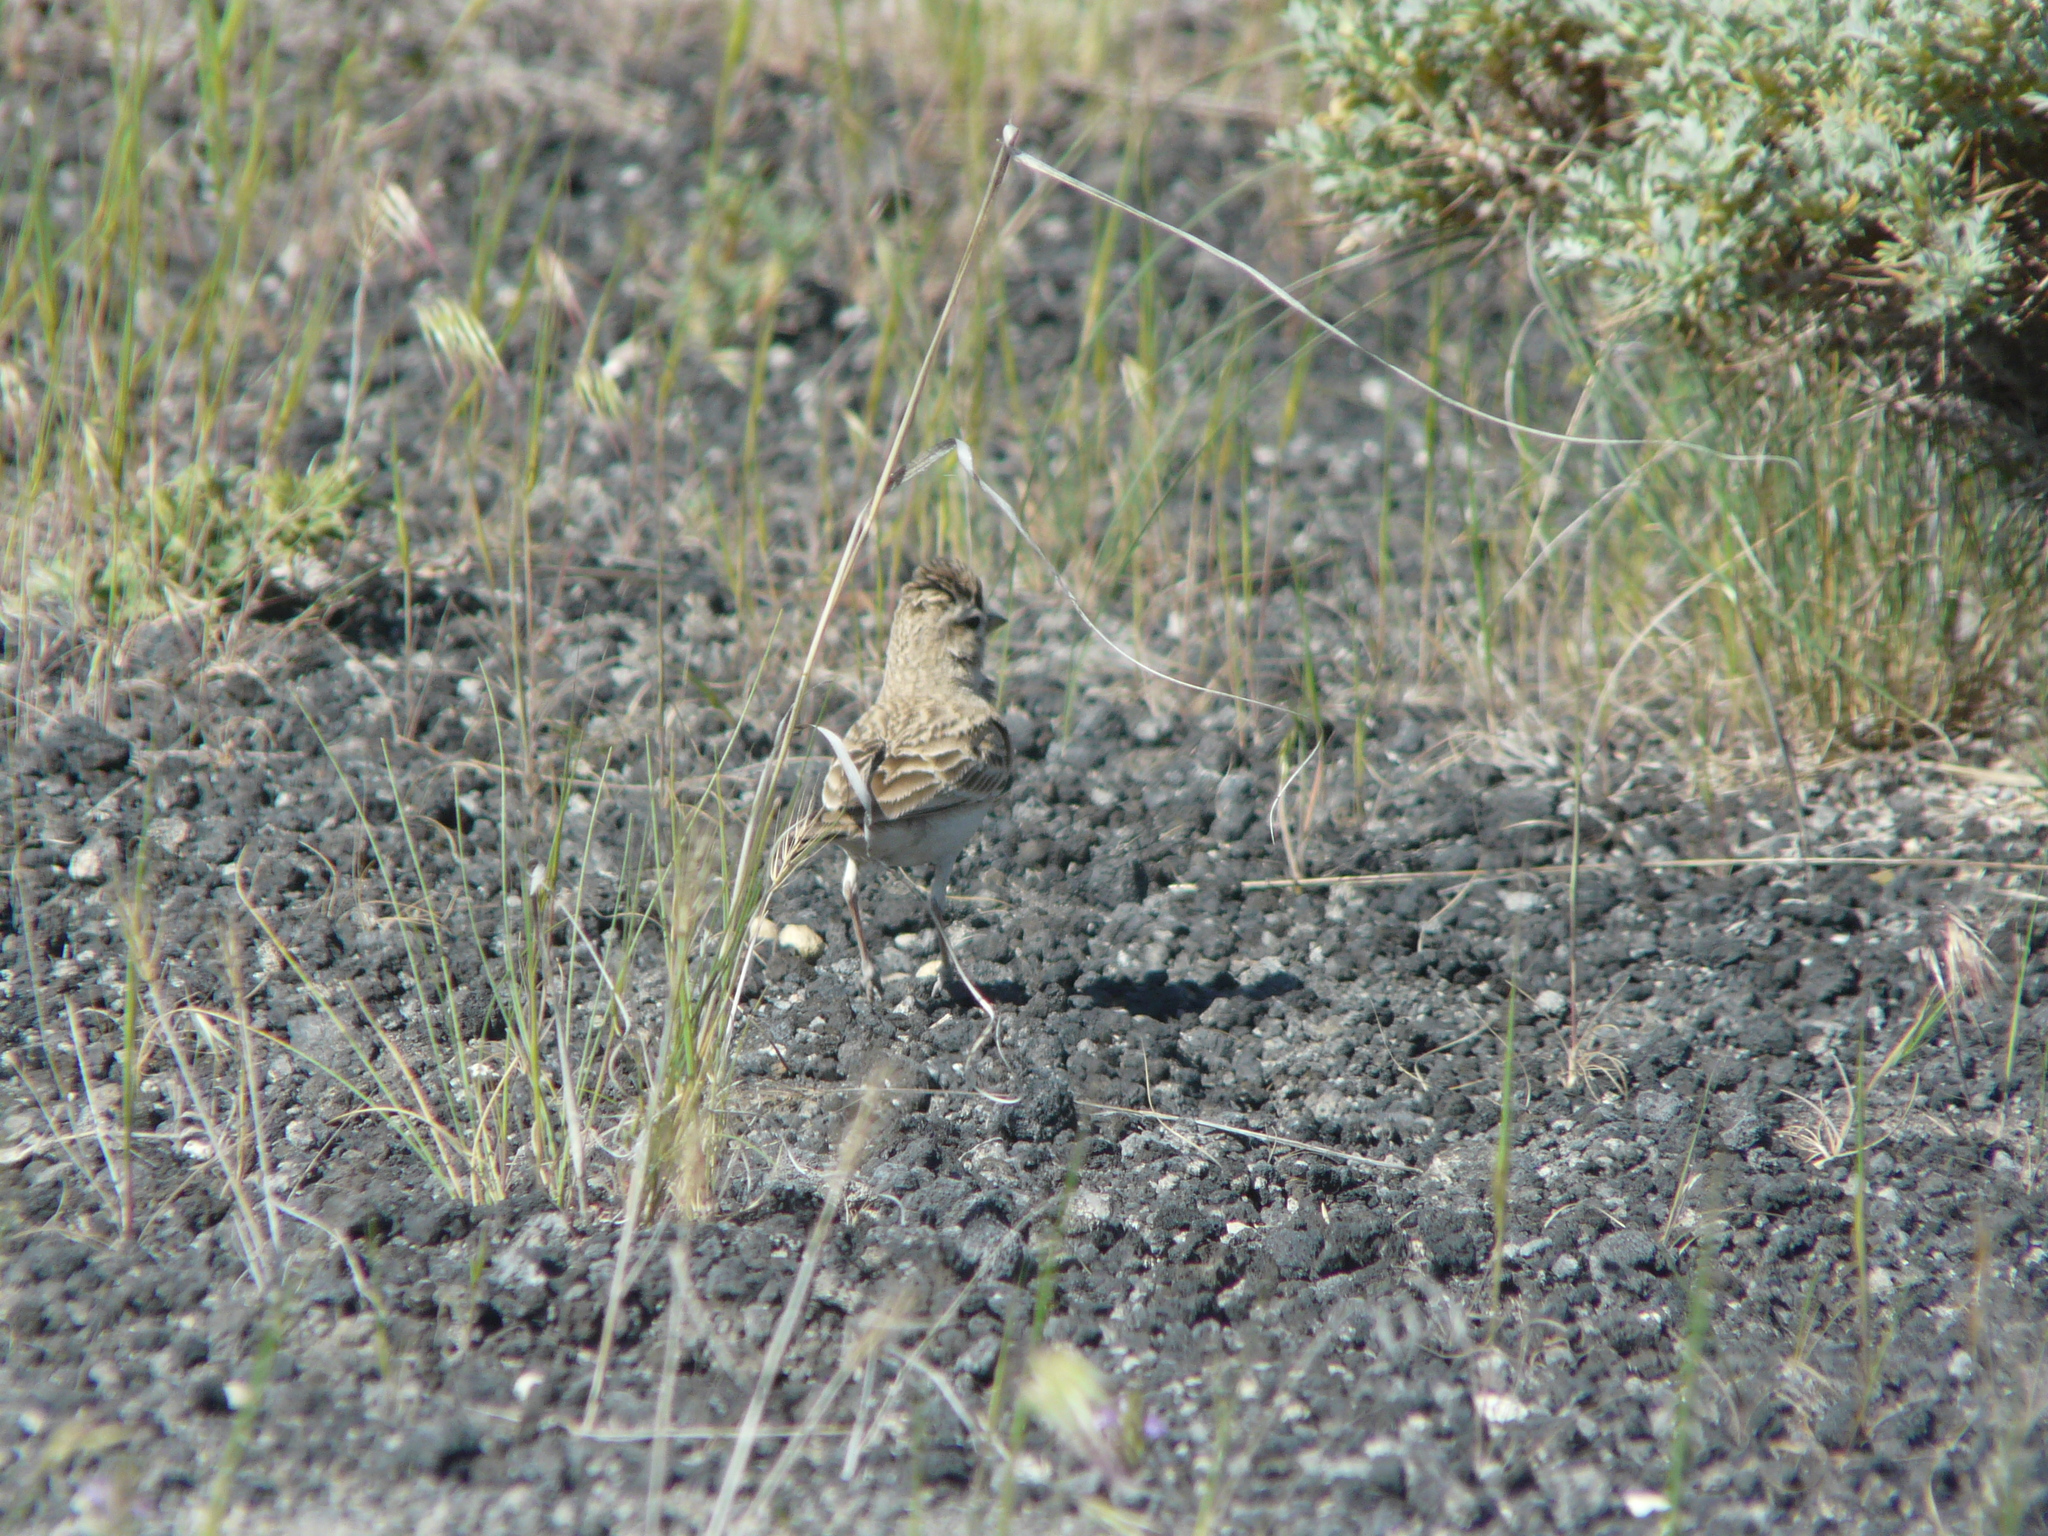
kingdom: Animalia
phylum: Chordata
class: Aves
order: Passeriformes
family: Alaudidae
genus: Calandrella
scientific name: Calandrella brachydactyla
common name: Greater short-toed lark
